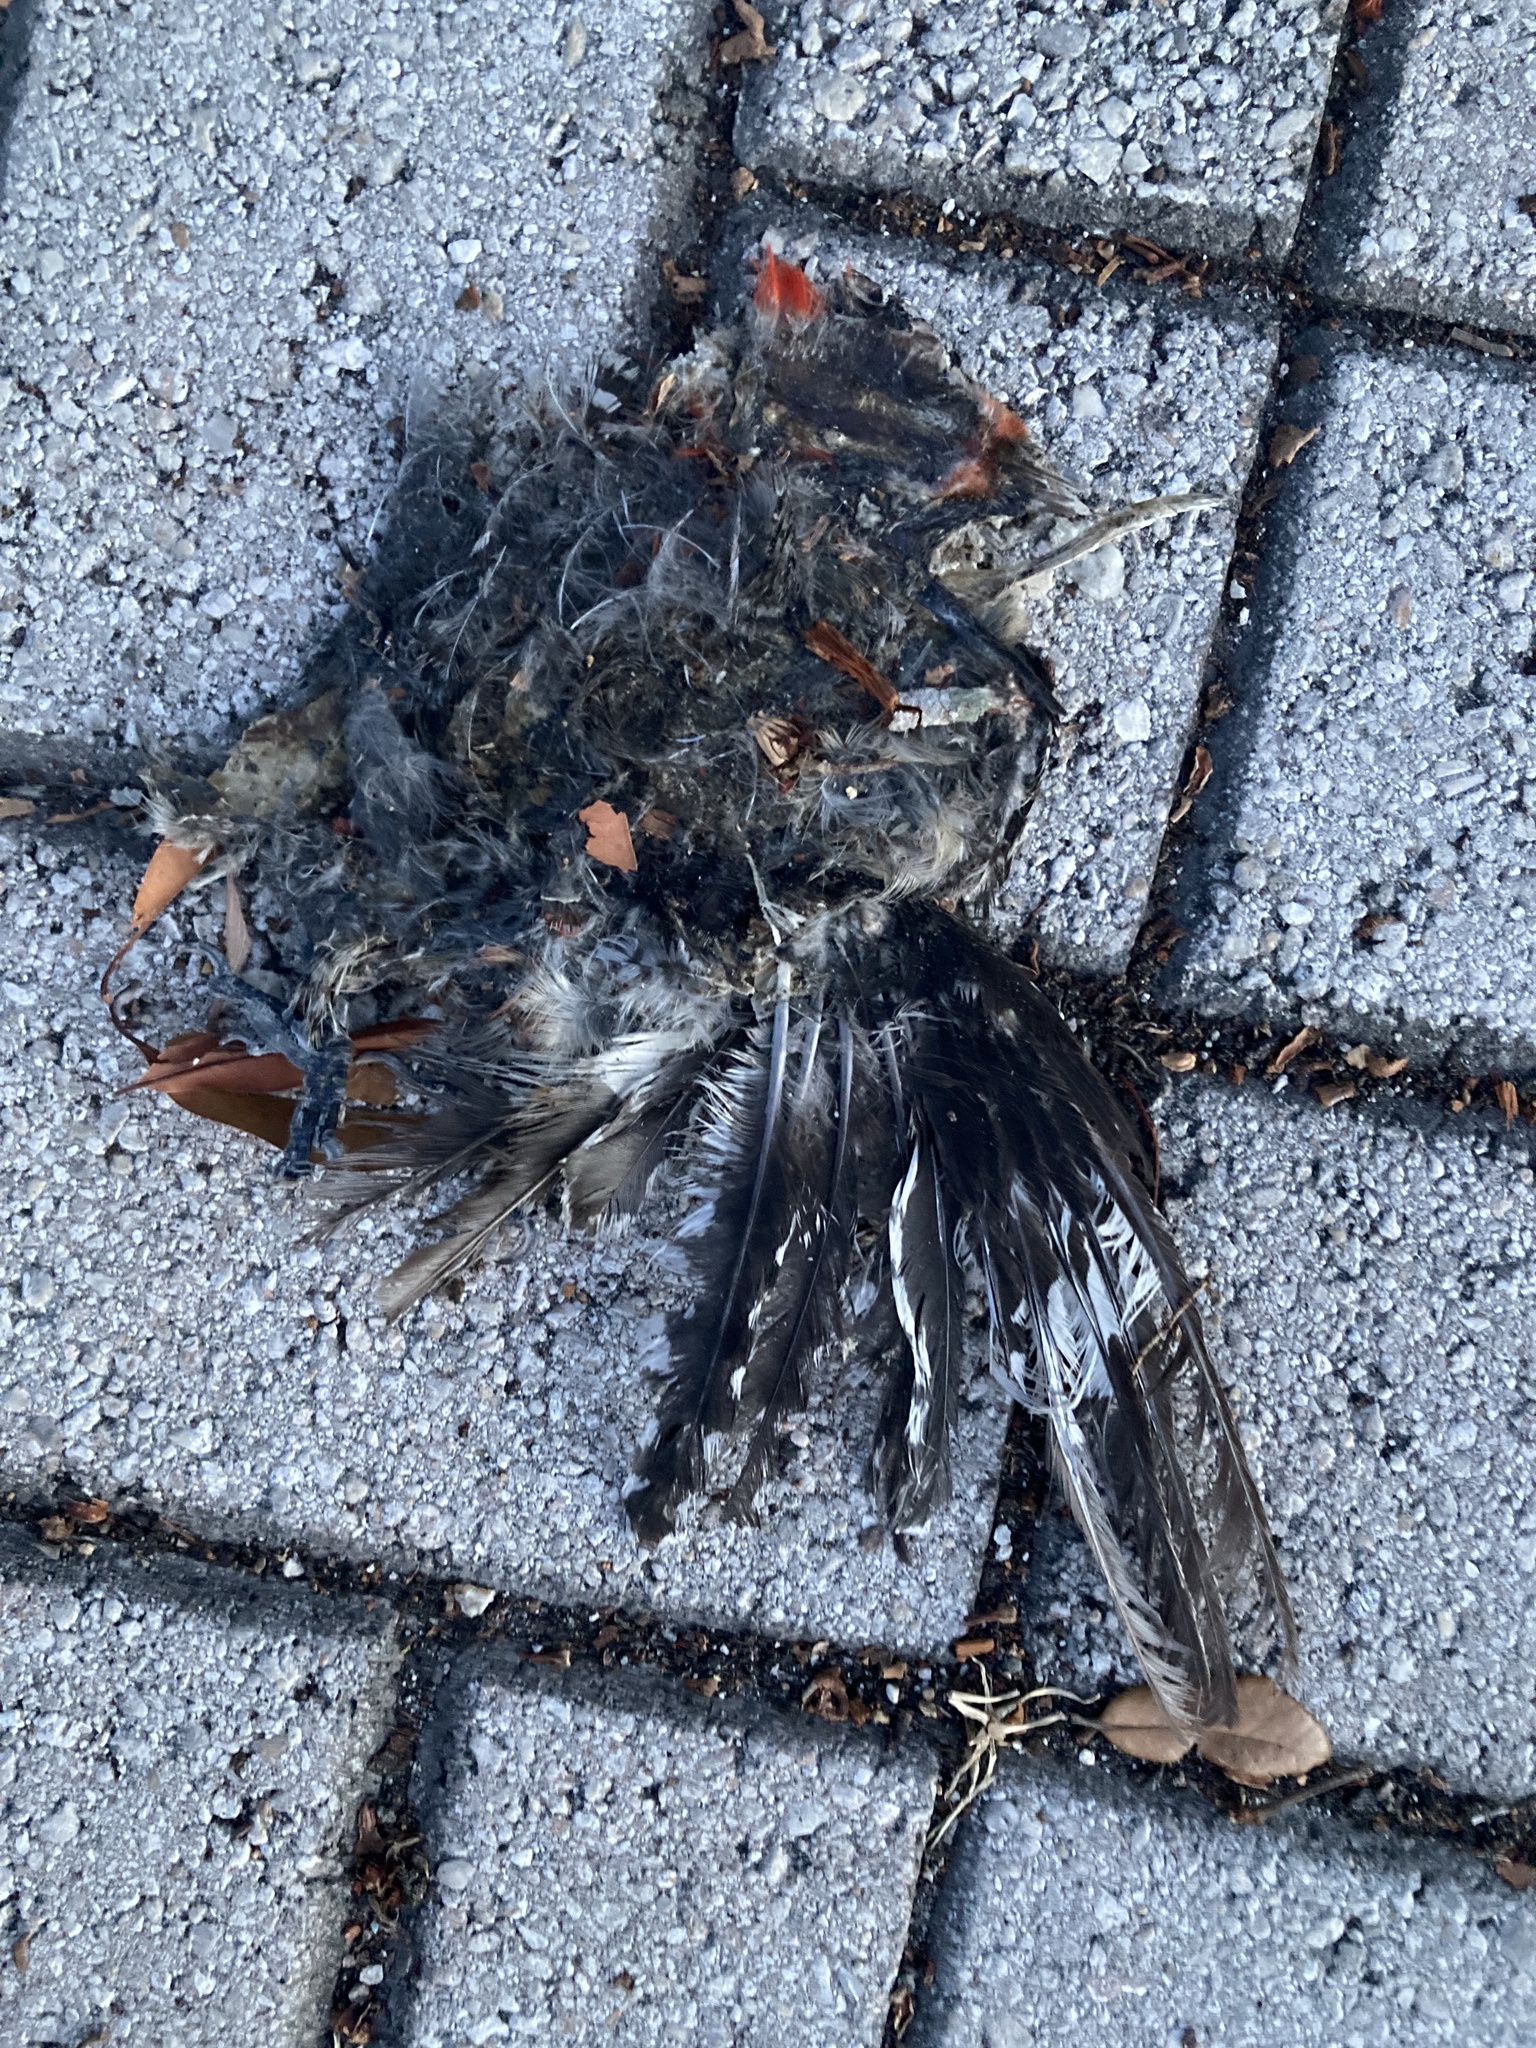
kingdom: Animalia
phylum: Chordata
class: Aves
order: Piciformes
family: Picidae
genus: Melanerpes
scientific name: Melanerpes carolinus
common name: Red-bellied woodpecker
